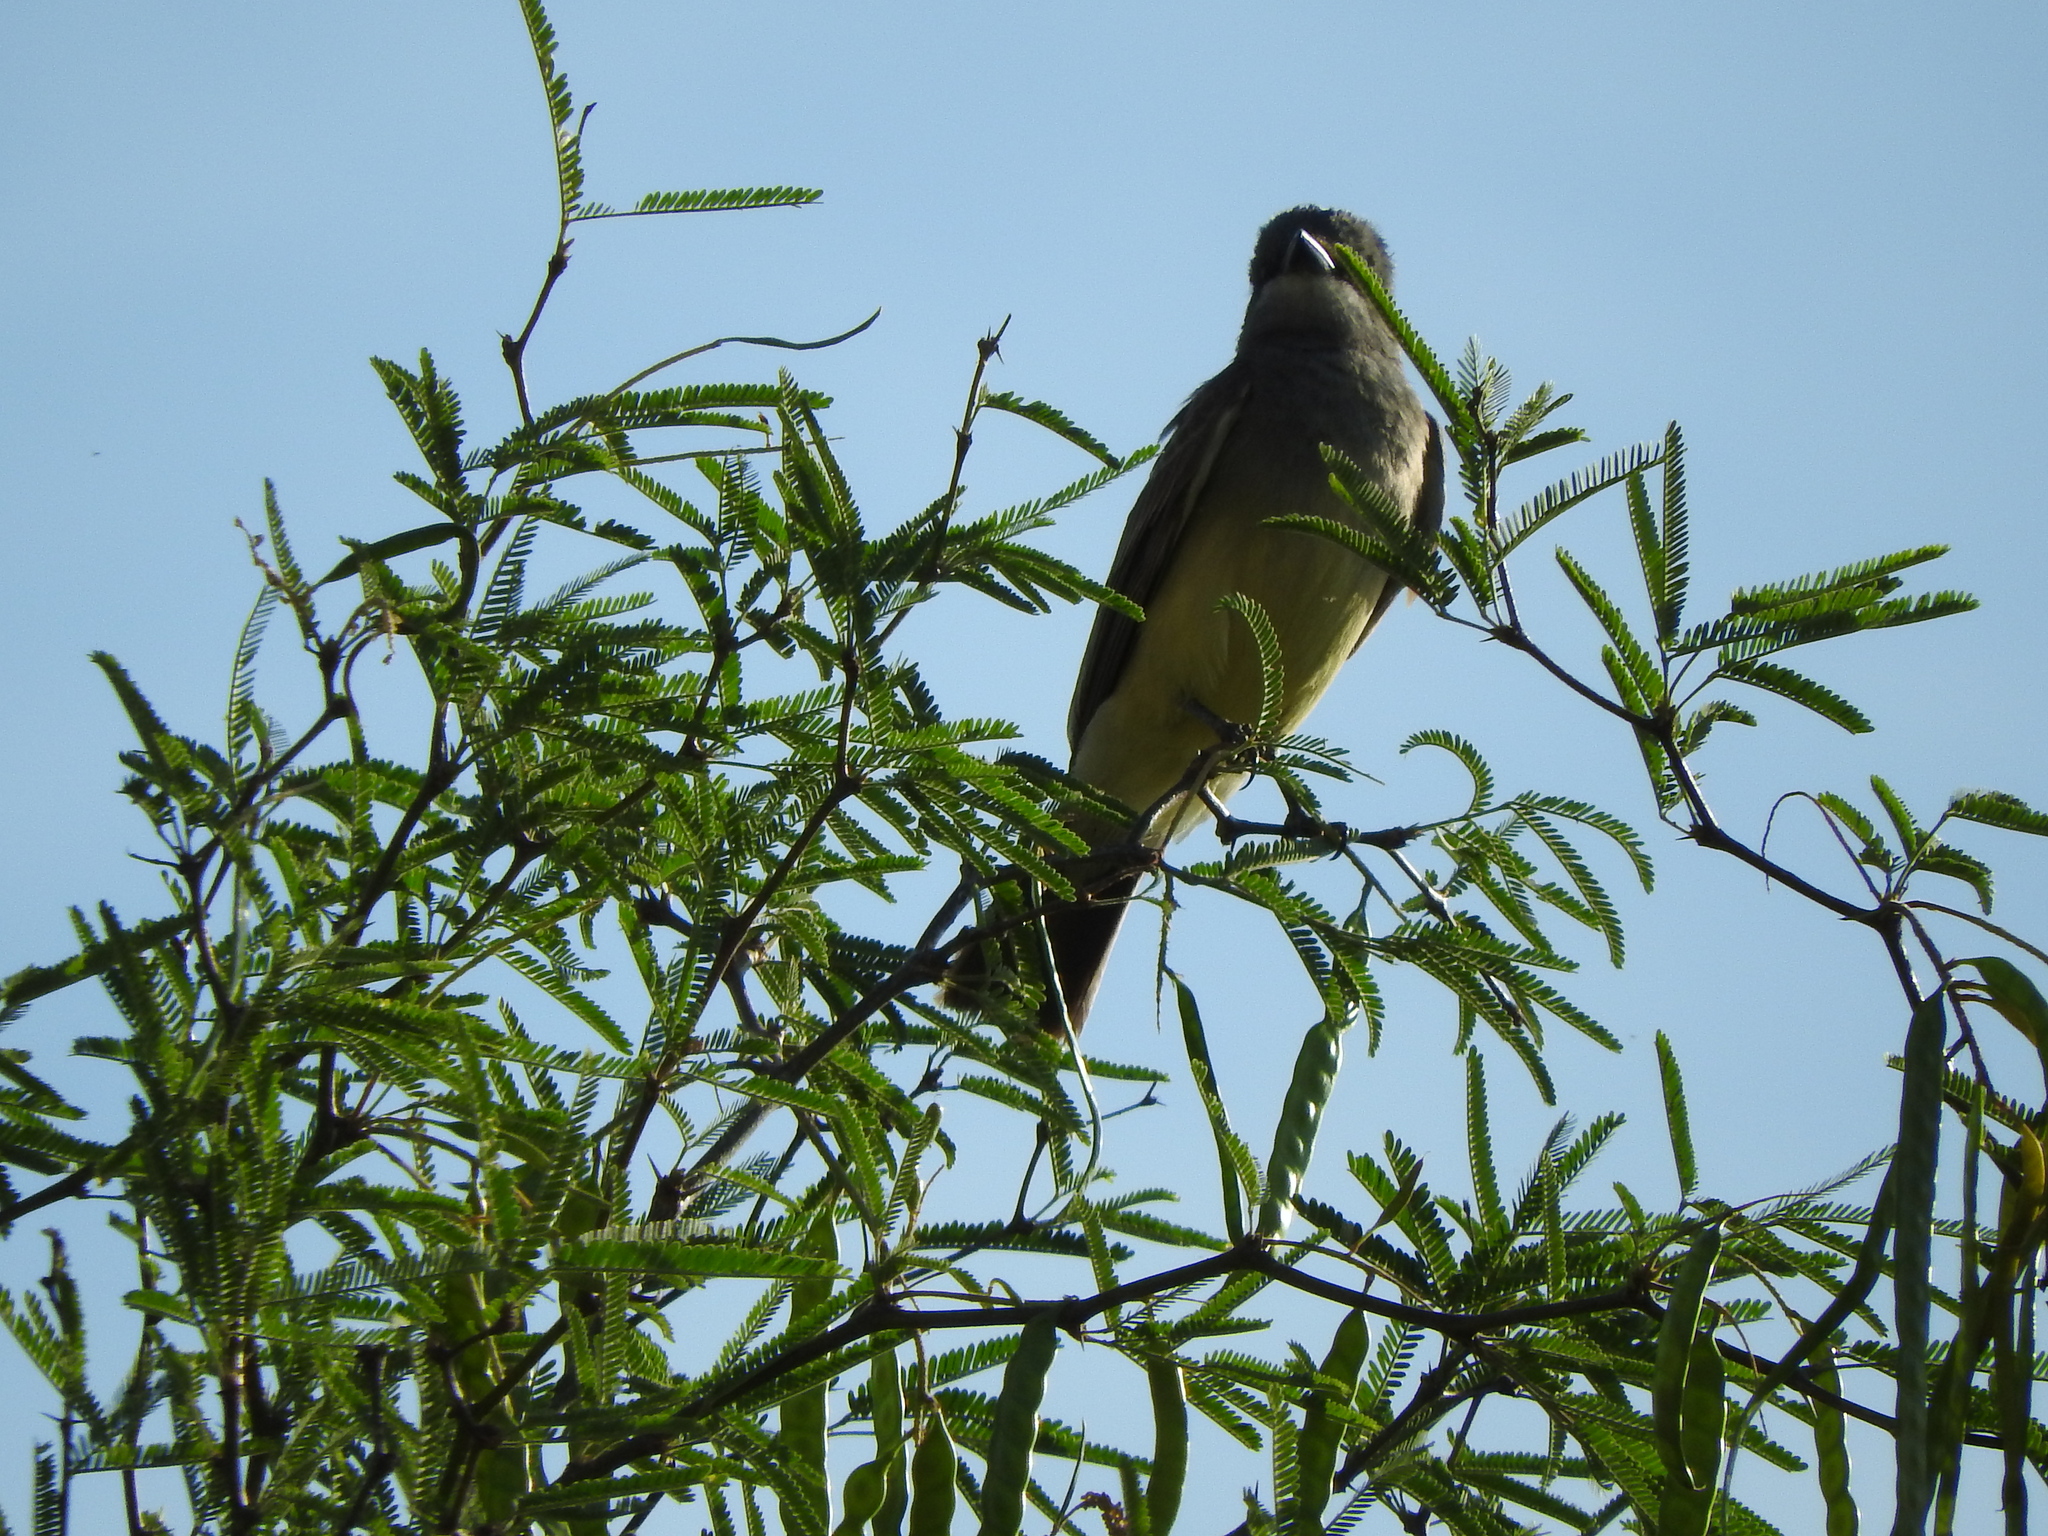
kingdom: Plantae
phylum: Tracheophyta
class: Magnoliopsida
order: Fabales
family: Fabaceae
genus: Prosopis
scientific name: Prosopis laevigata
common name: Smooth mesquite
